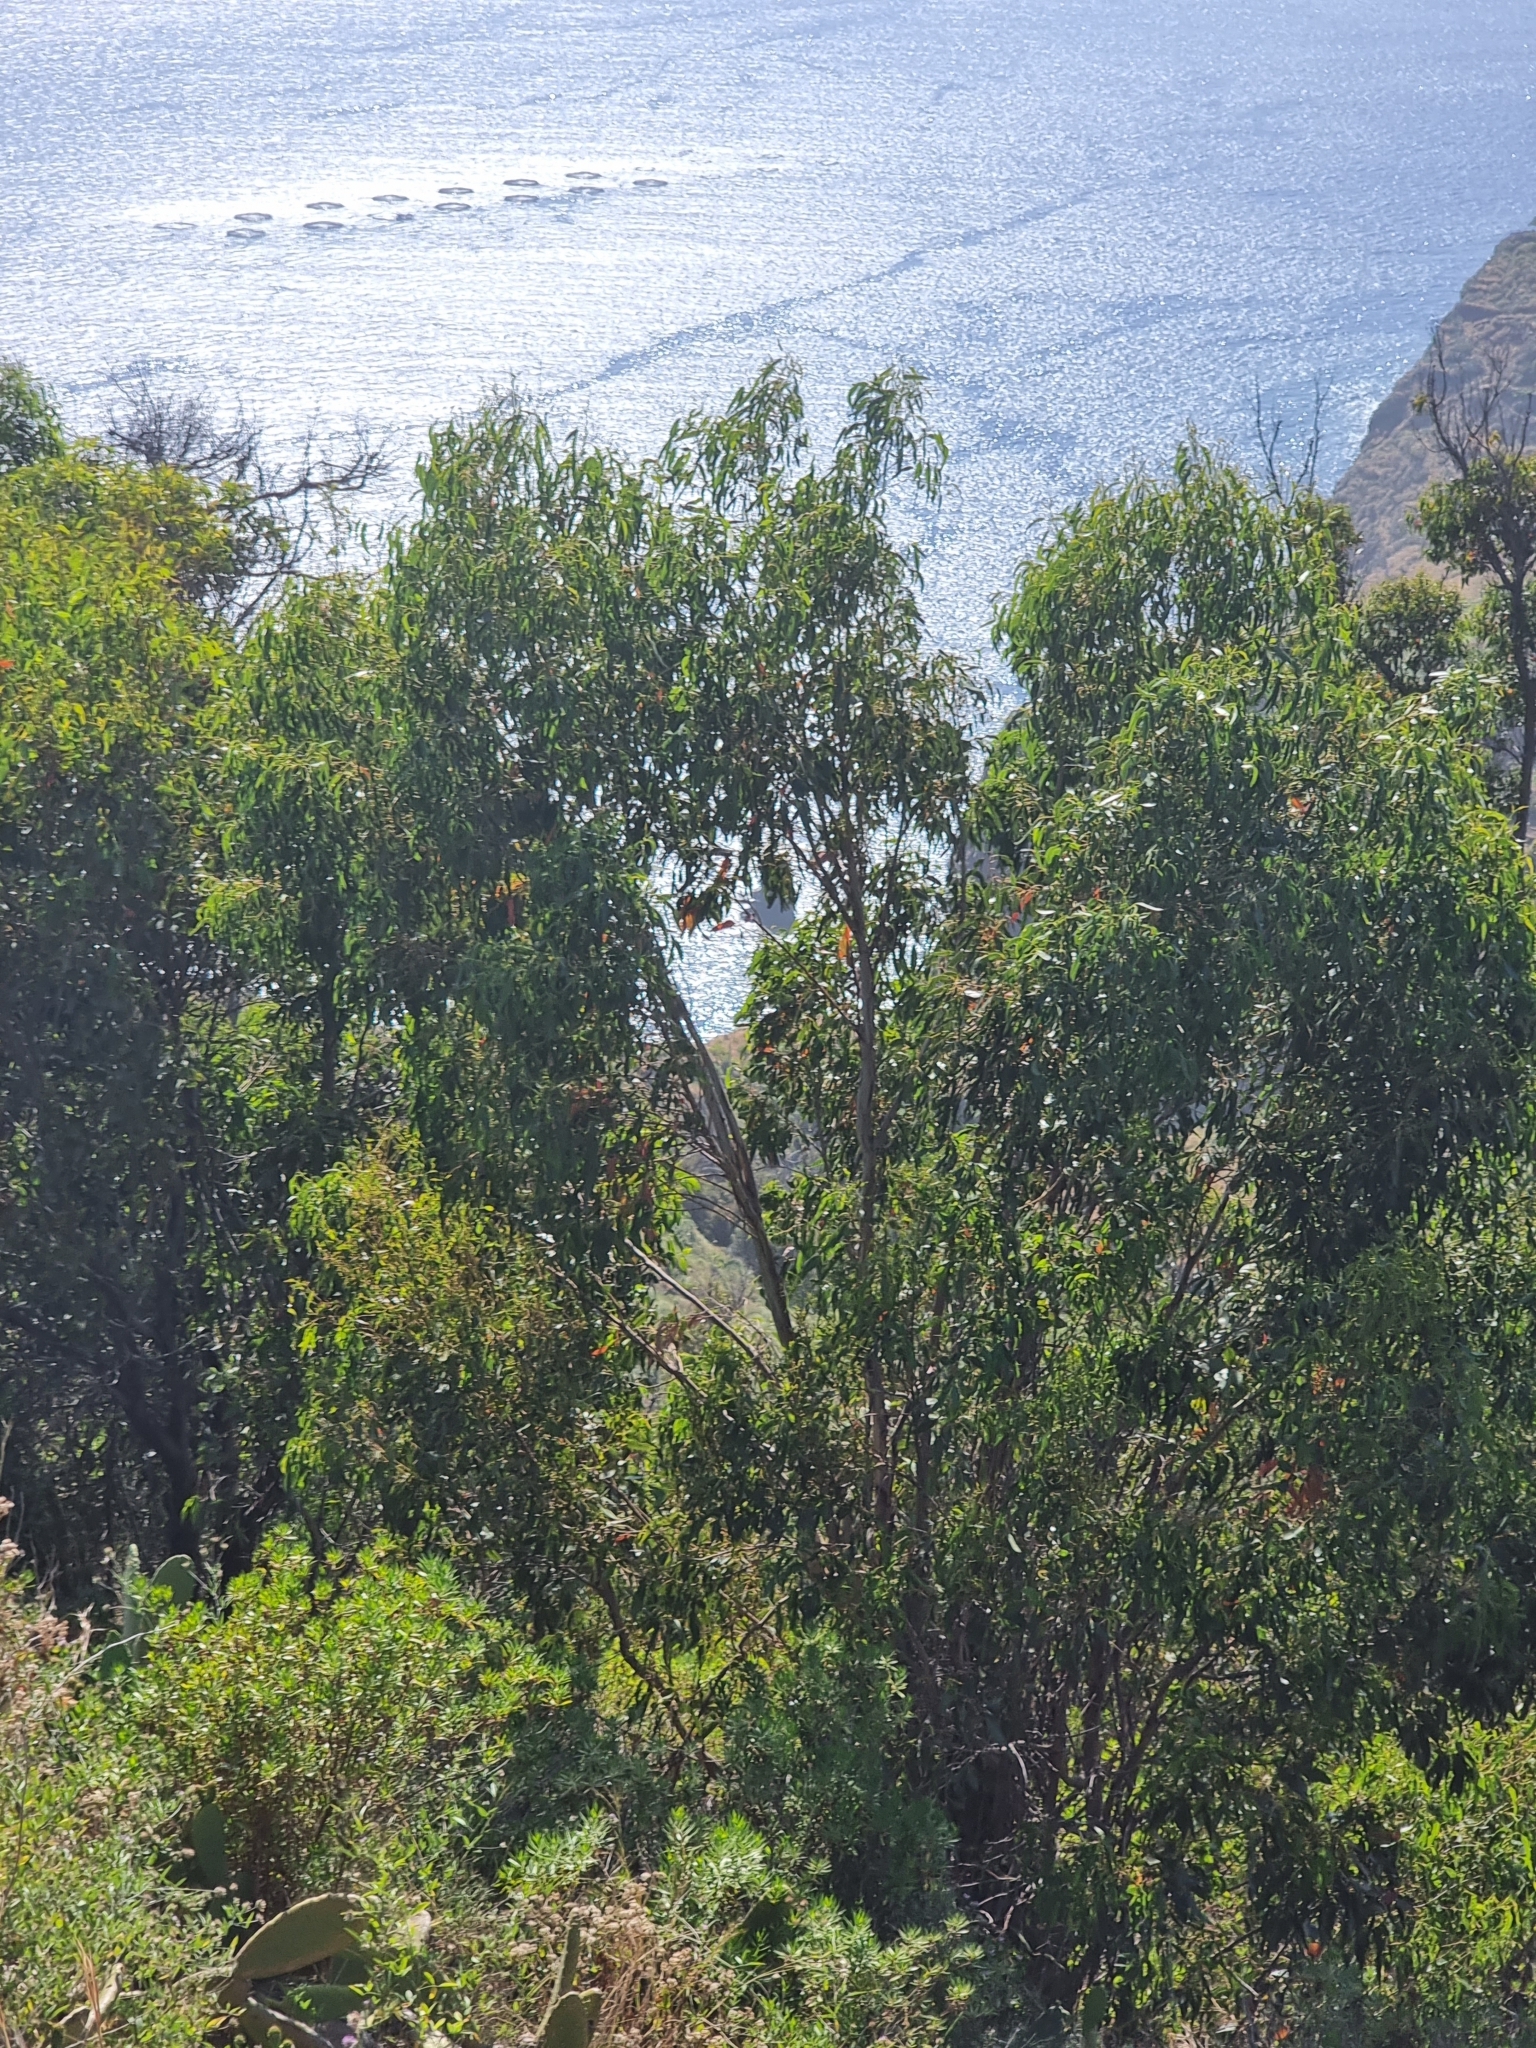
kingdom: Plantae
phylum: Tracheophyta
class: Magnoliopsida
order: Myrtales
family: Myrtaceae
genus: Eucalyptus
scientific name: Eucalyptus globulus
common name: Southern blue-gum
